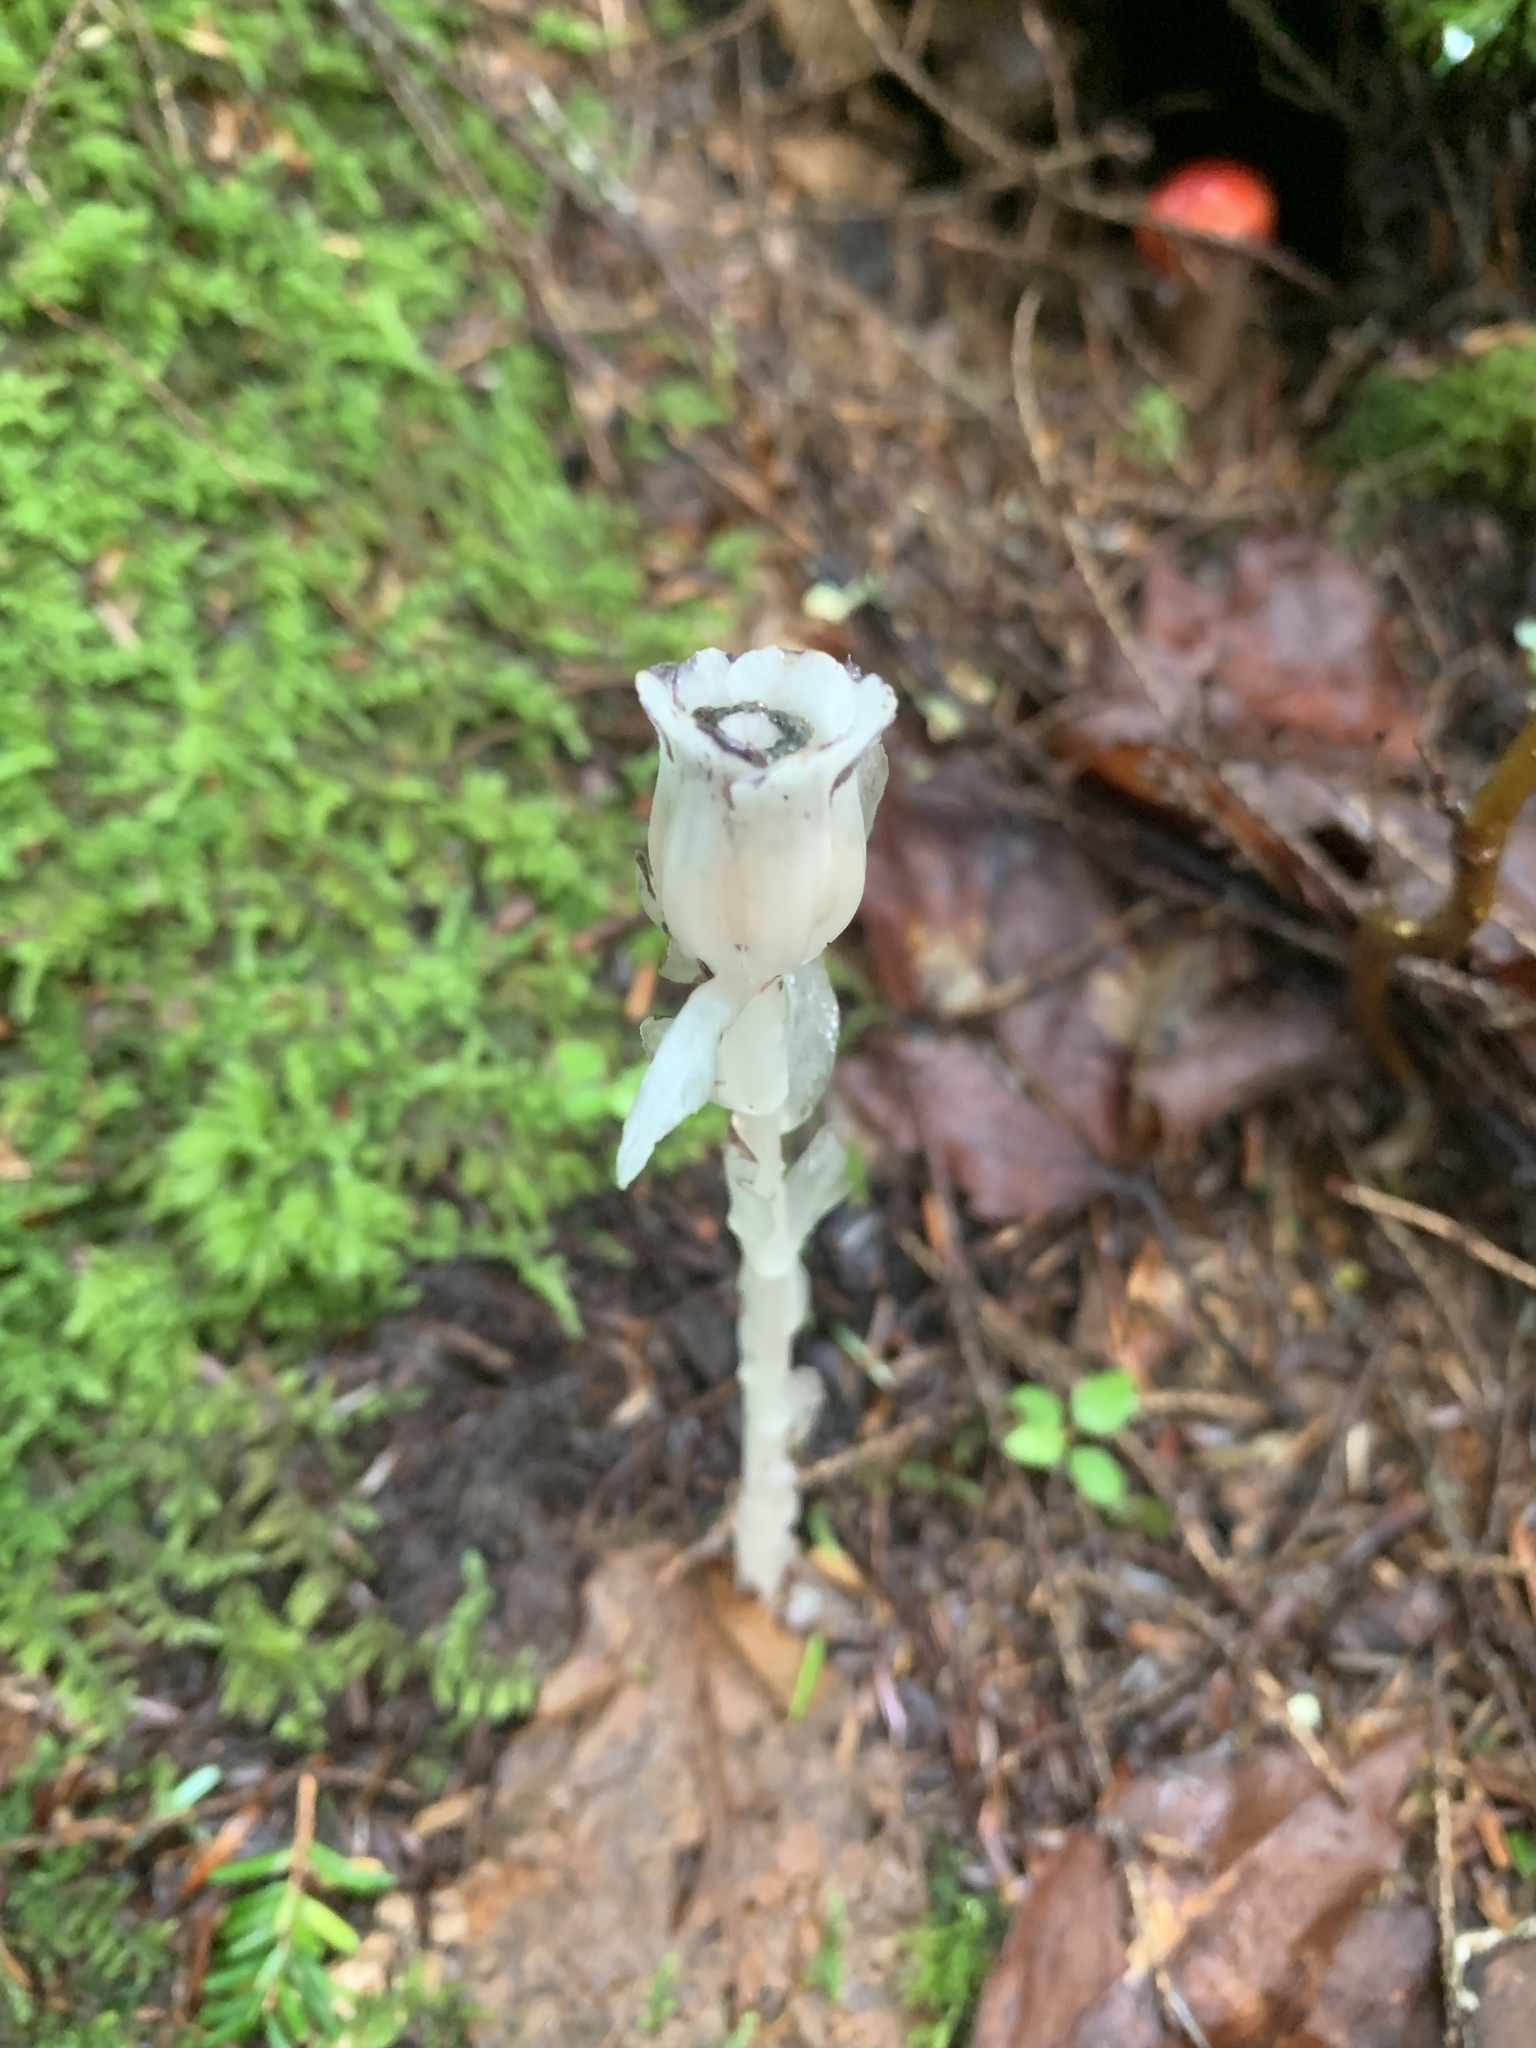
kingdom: Plantae
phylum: Tracheophyta
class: Magnoliopsida
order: Ericales
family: Ericaceae
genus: Monotropa
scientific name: Monotropa uniflora
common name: Convulsion root
